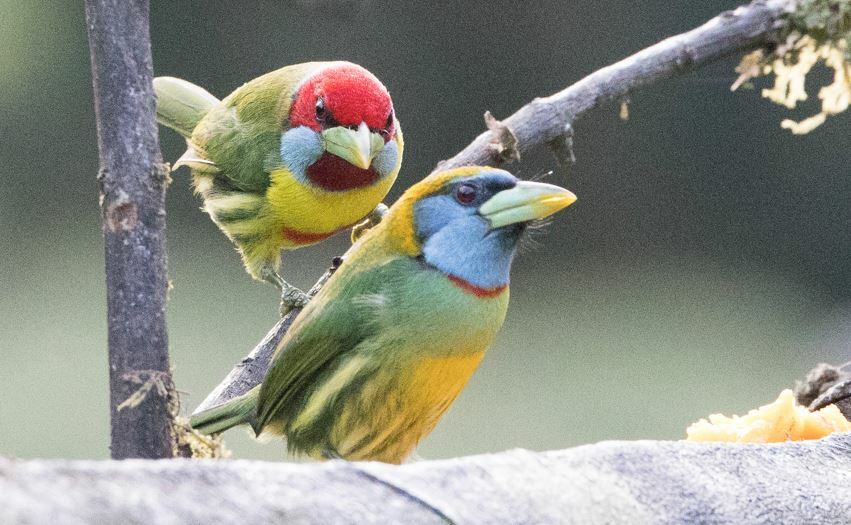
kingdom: Animalia
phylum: Chordata
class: Aves
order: Piciformes
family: Capitonidae
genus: Eubucco
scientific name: Eubucco versicolor
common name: Versicolored barbet
